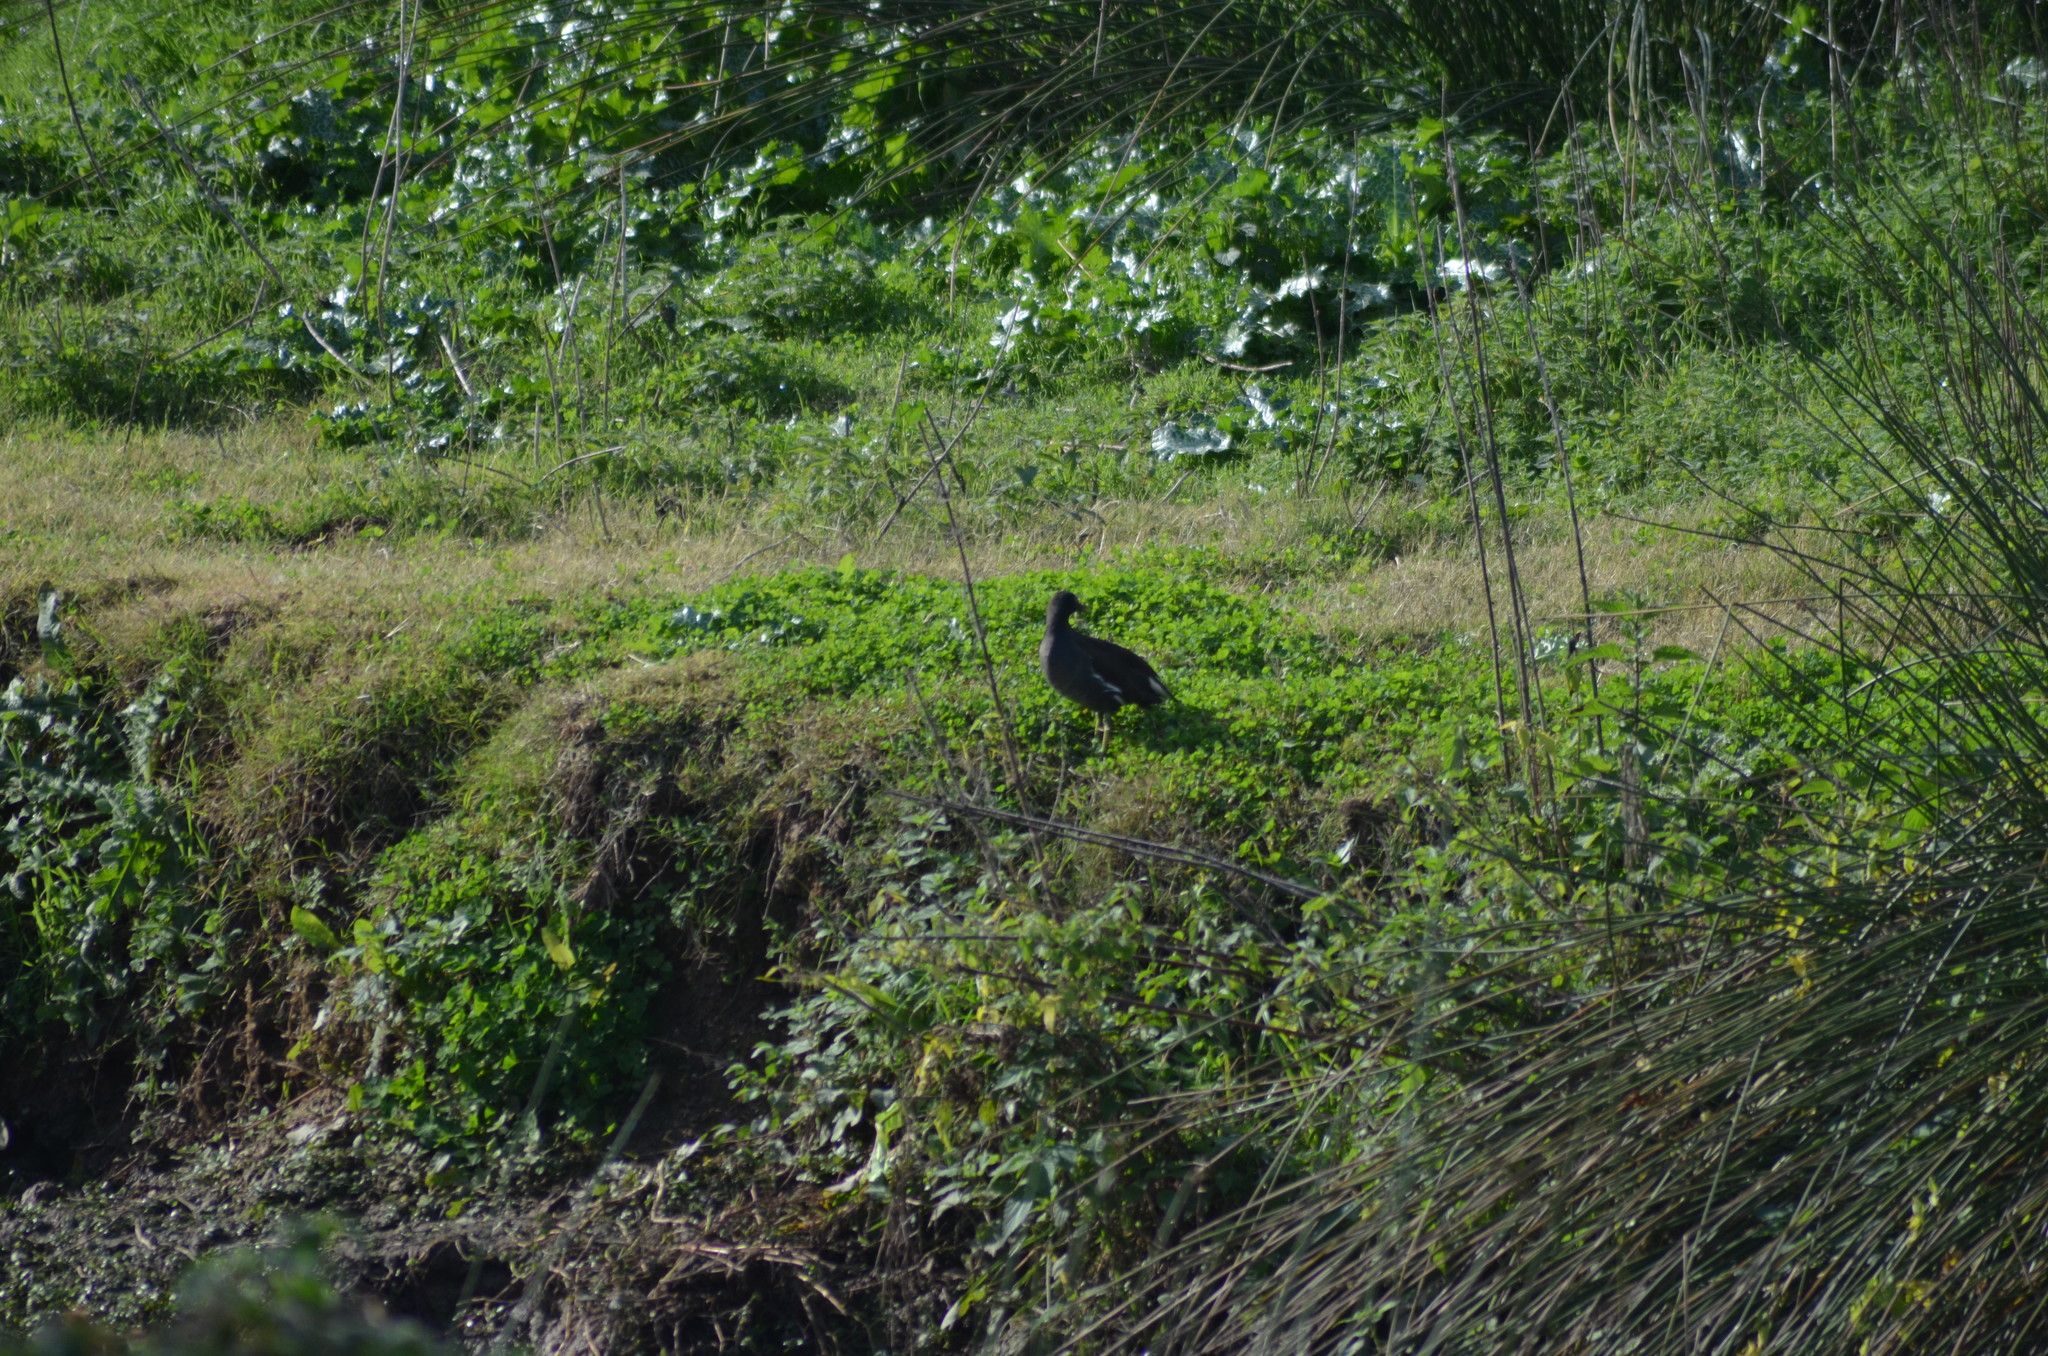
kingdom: Animalia
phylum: Chordata
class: Aves
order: Gruiformes
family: Rallidae
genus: Gallinula
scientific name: Gallinula chloropus
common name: Common moorhen
